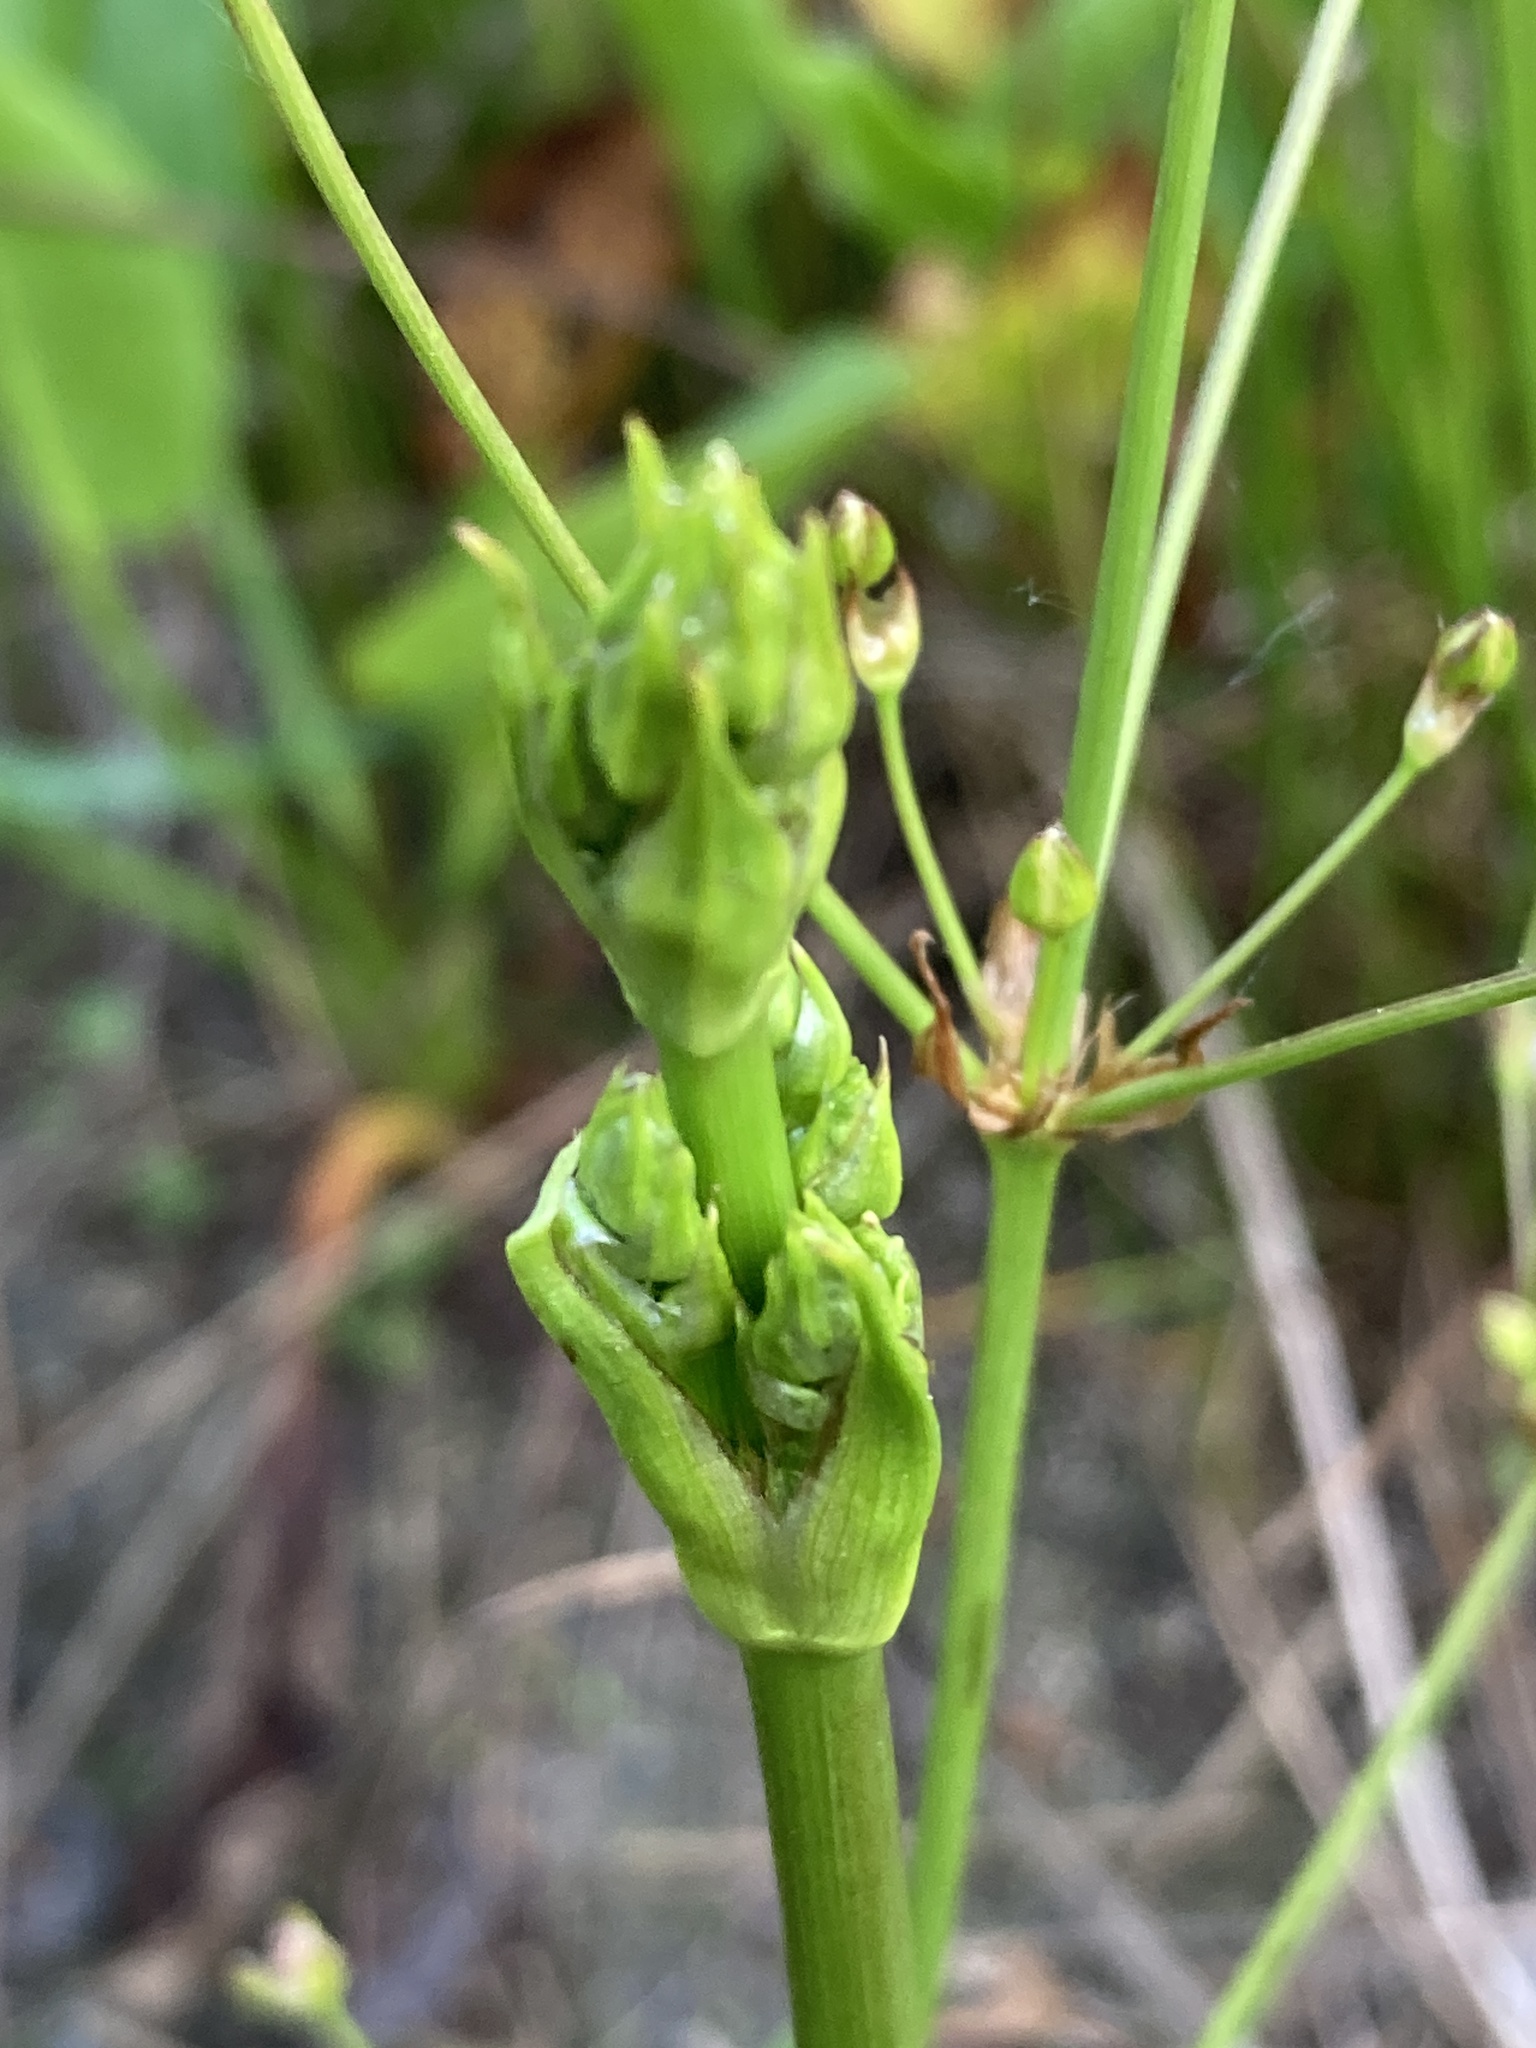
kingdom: Plantae
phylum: Tracheophyta
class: Liliopsida
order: Alismatales
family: Alismataceae
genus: Alisma
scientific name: Alisma plantago-aquatica
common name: Water-plantain
